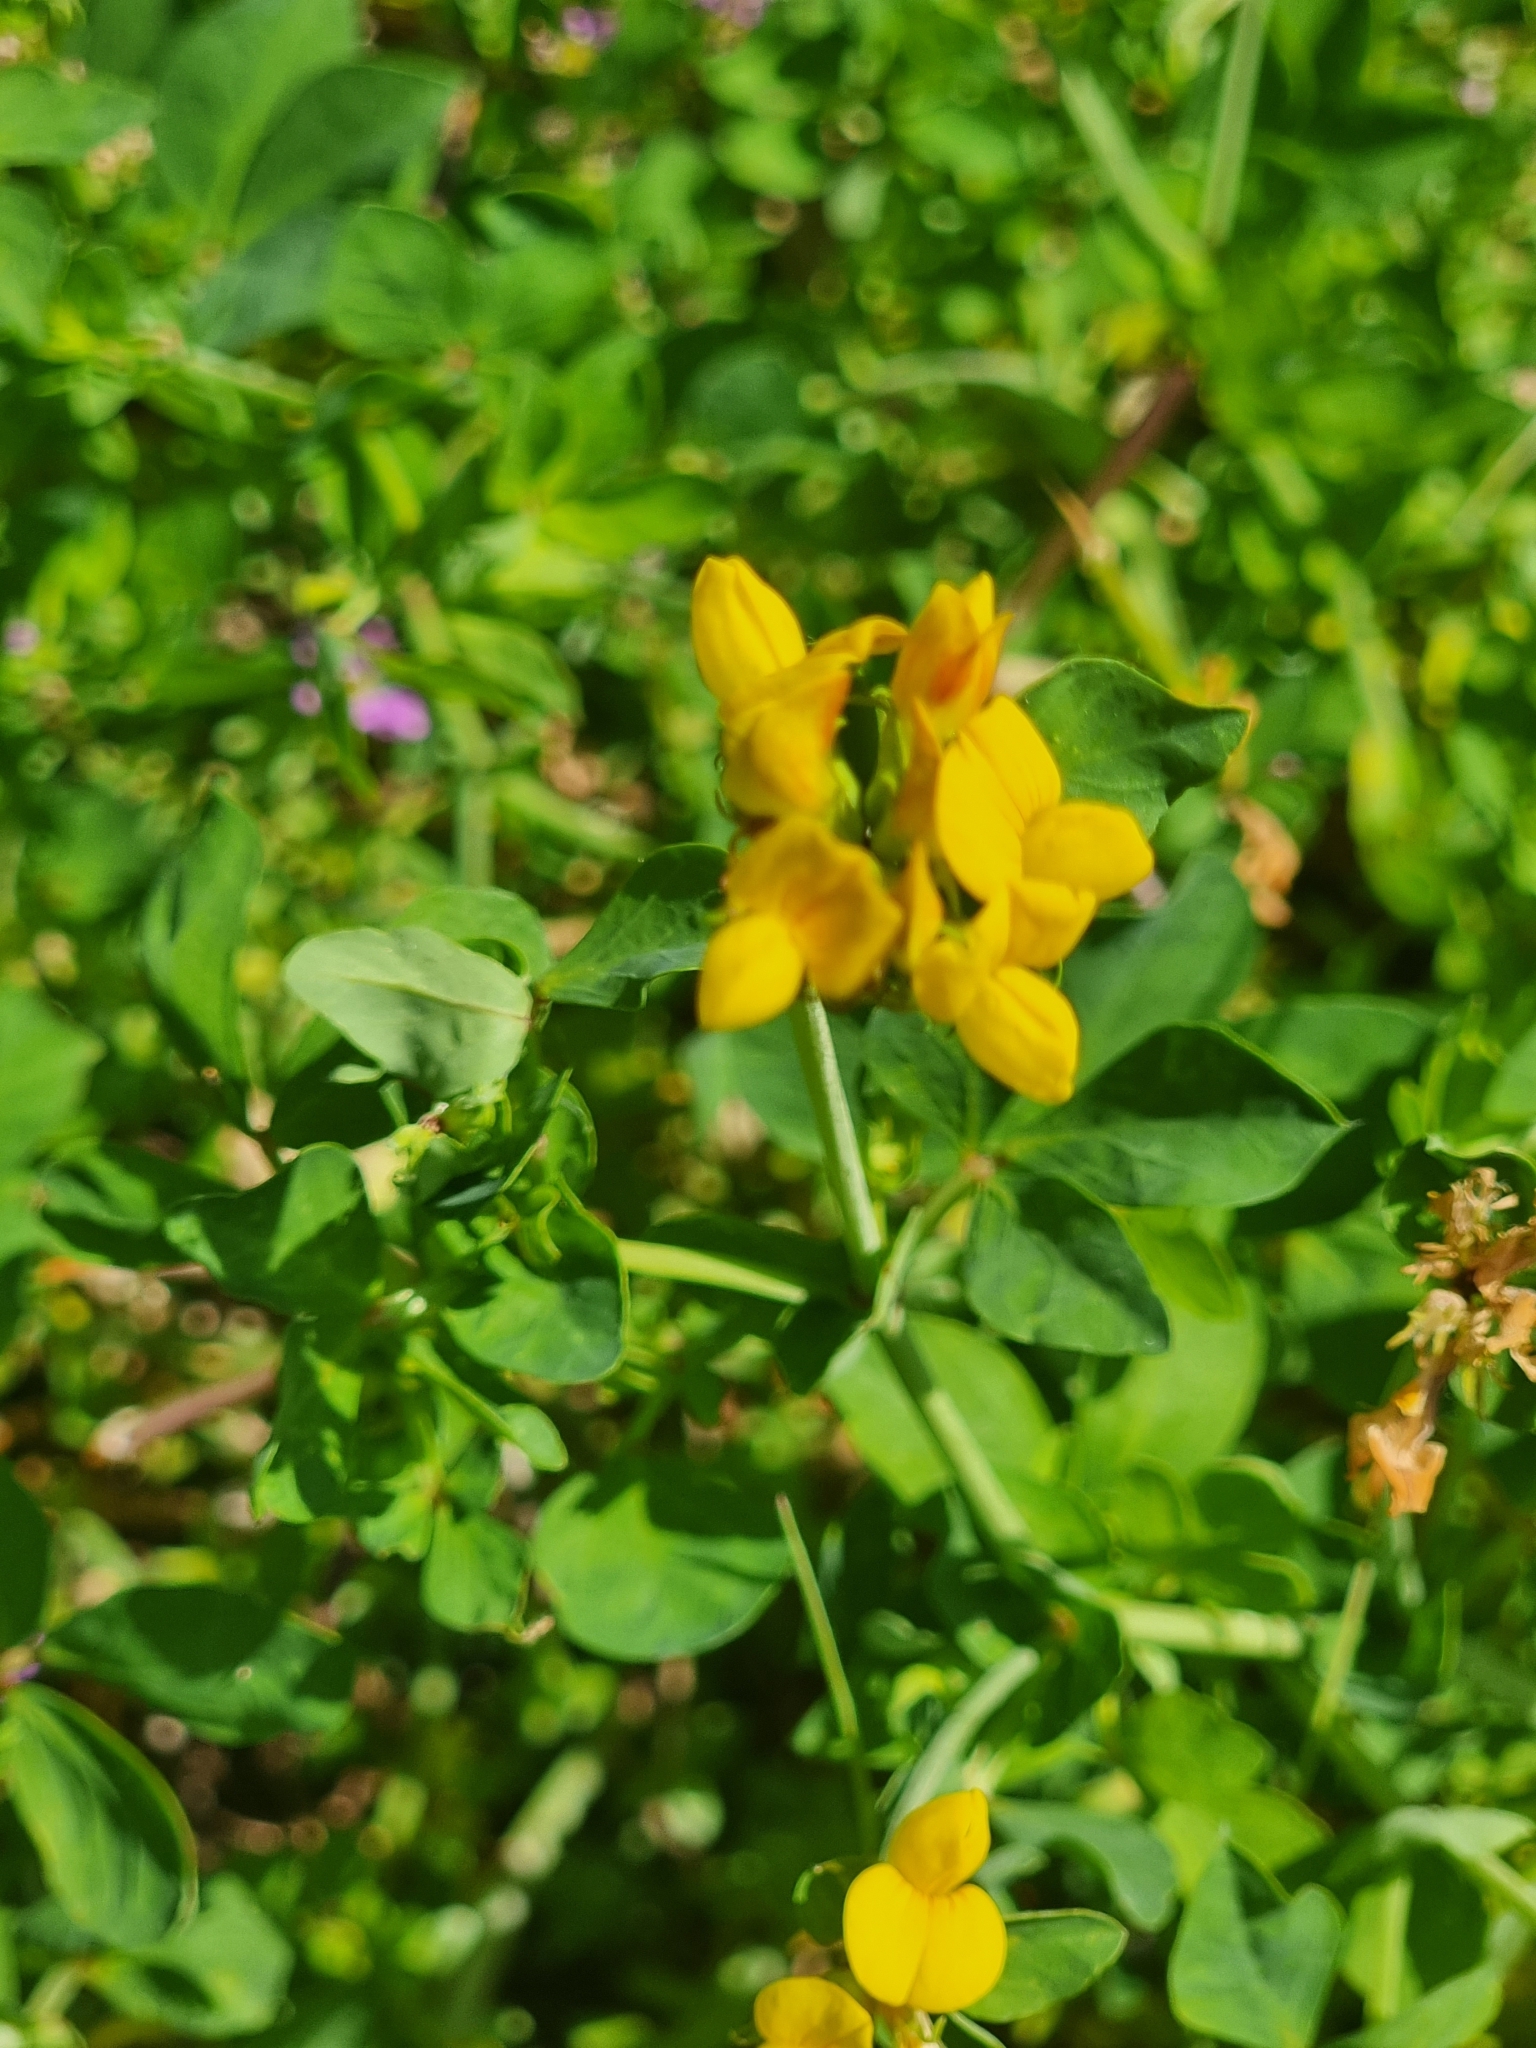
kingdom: Plantae
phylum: Tracheophyta
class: Magnoliopsida
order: Fabales
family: Fabaceae
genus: Lotus
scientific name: Lotus pedunculatus
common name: Greater birdsfoot-trefoil
